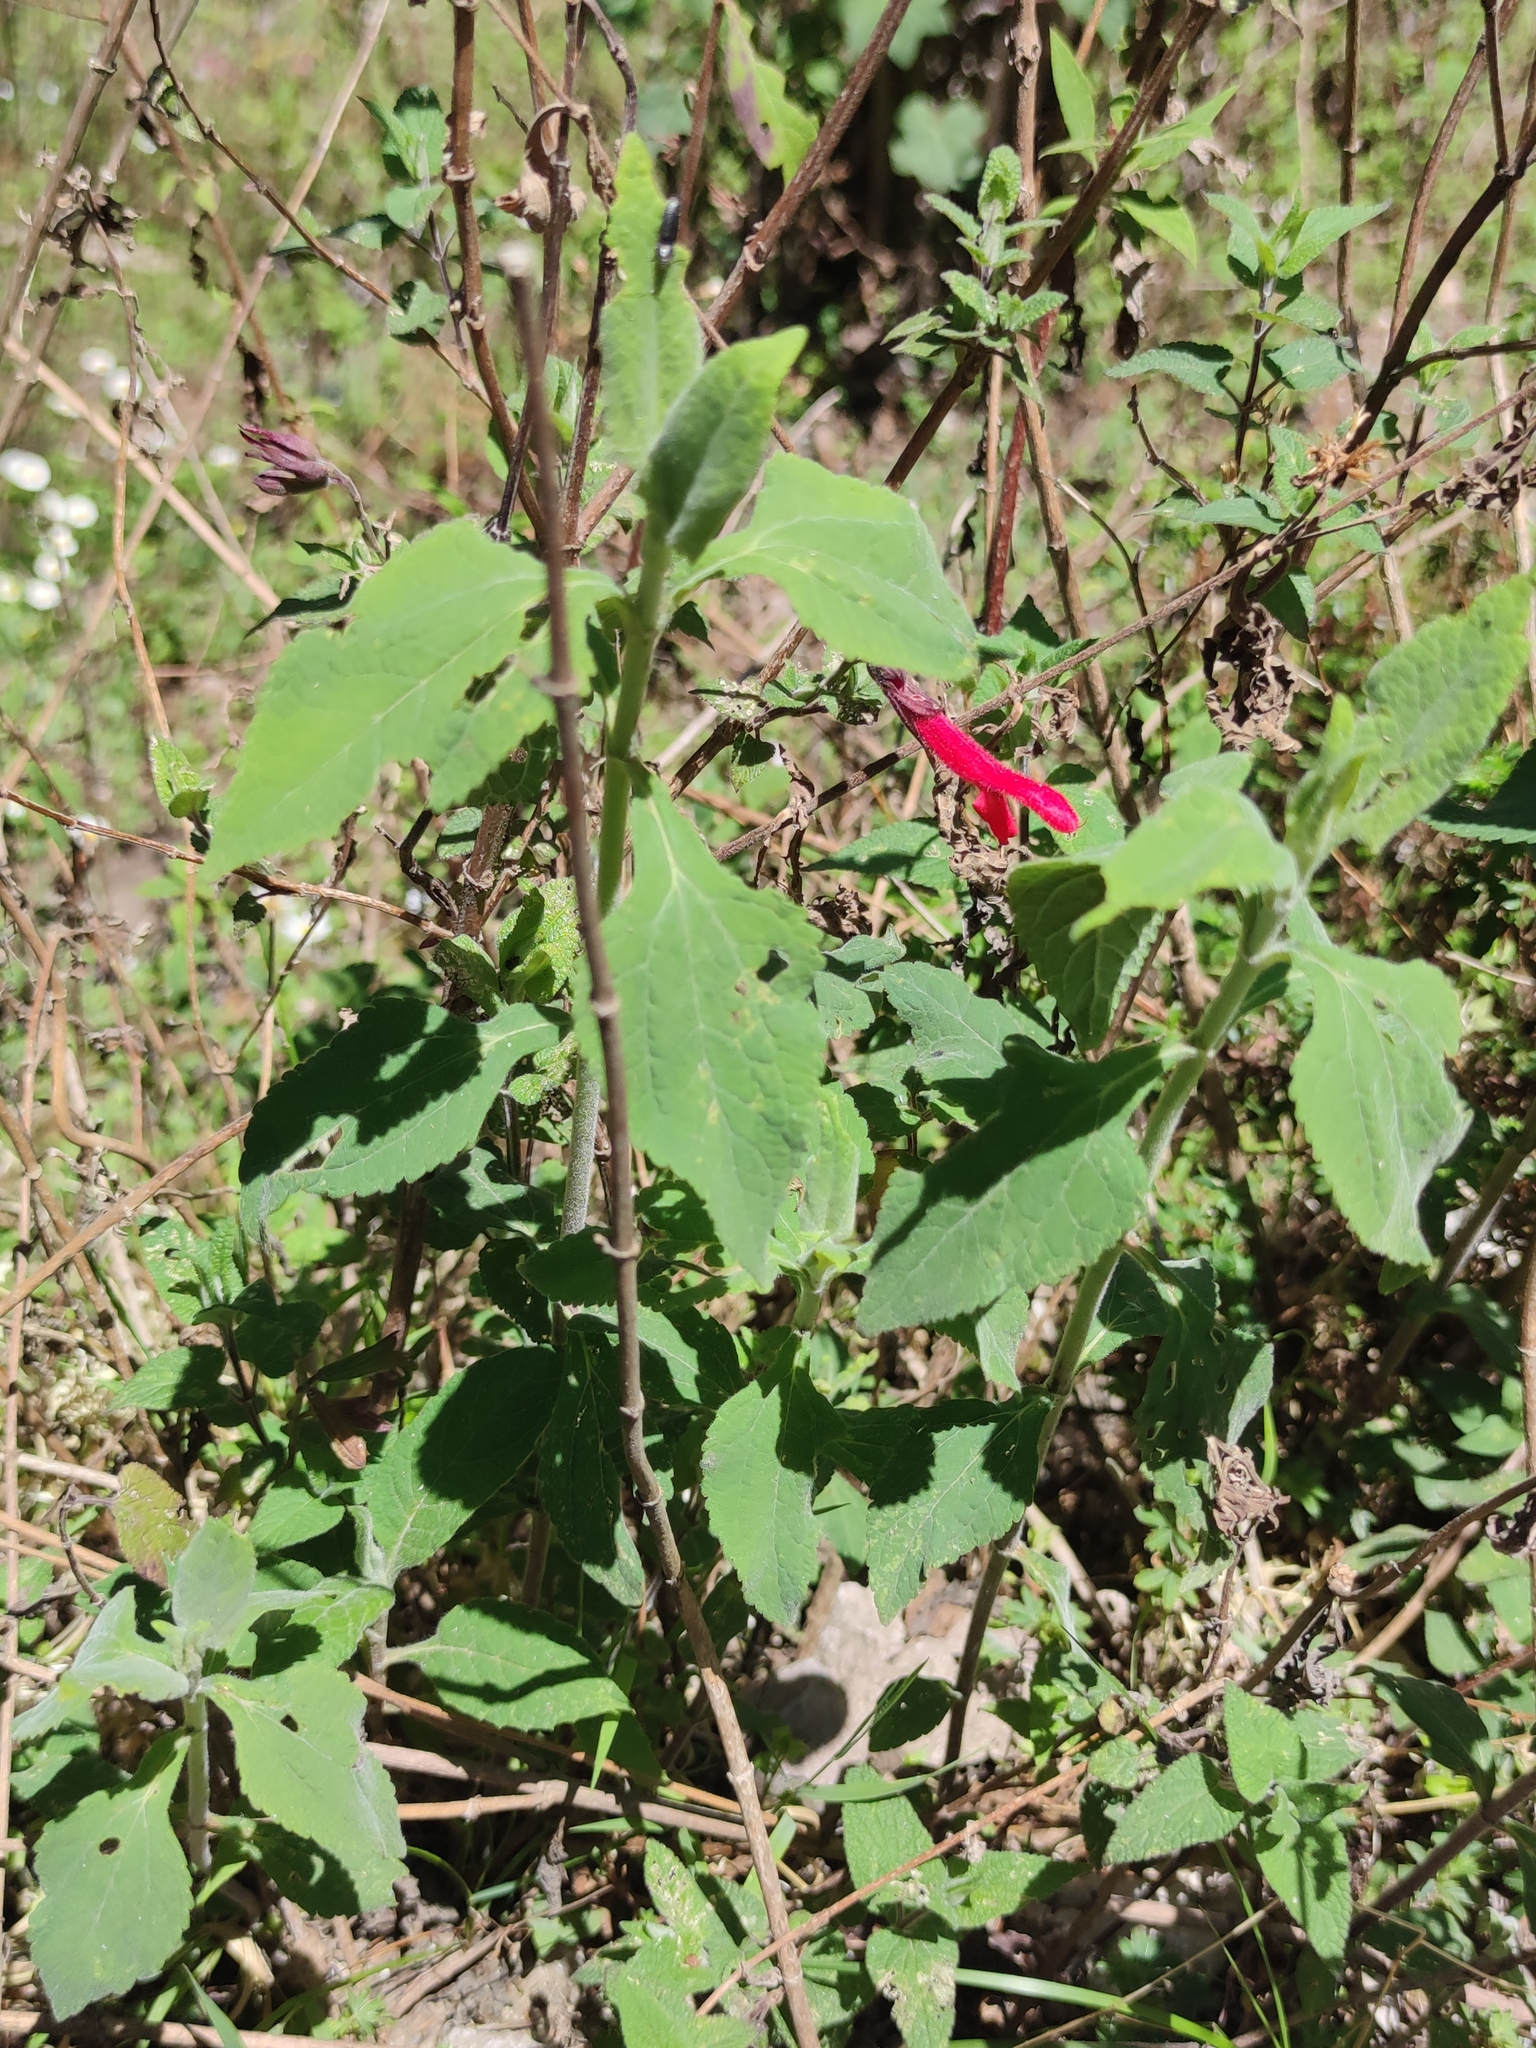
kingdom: Plantae
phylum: Tracheophyta
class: Magnoliopsida
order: Lamiales
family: Lamiaceae
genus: Salvia
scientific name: Salvia fulgens
